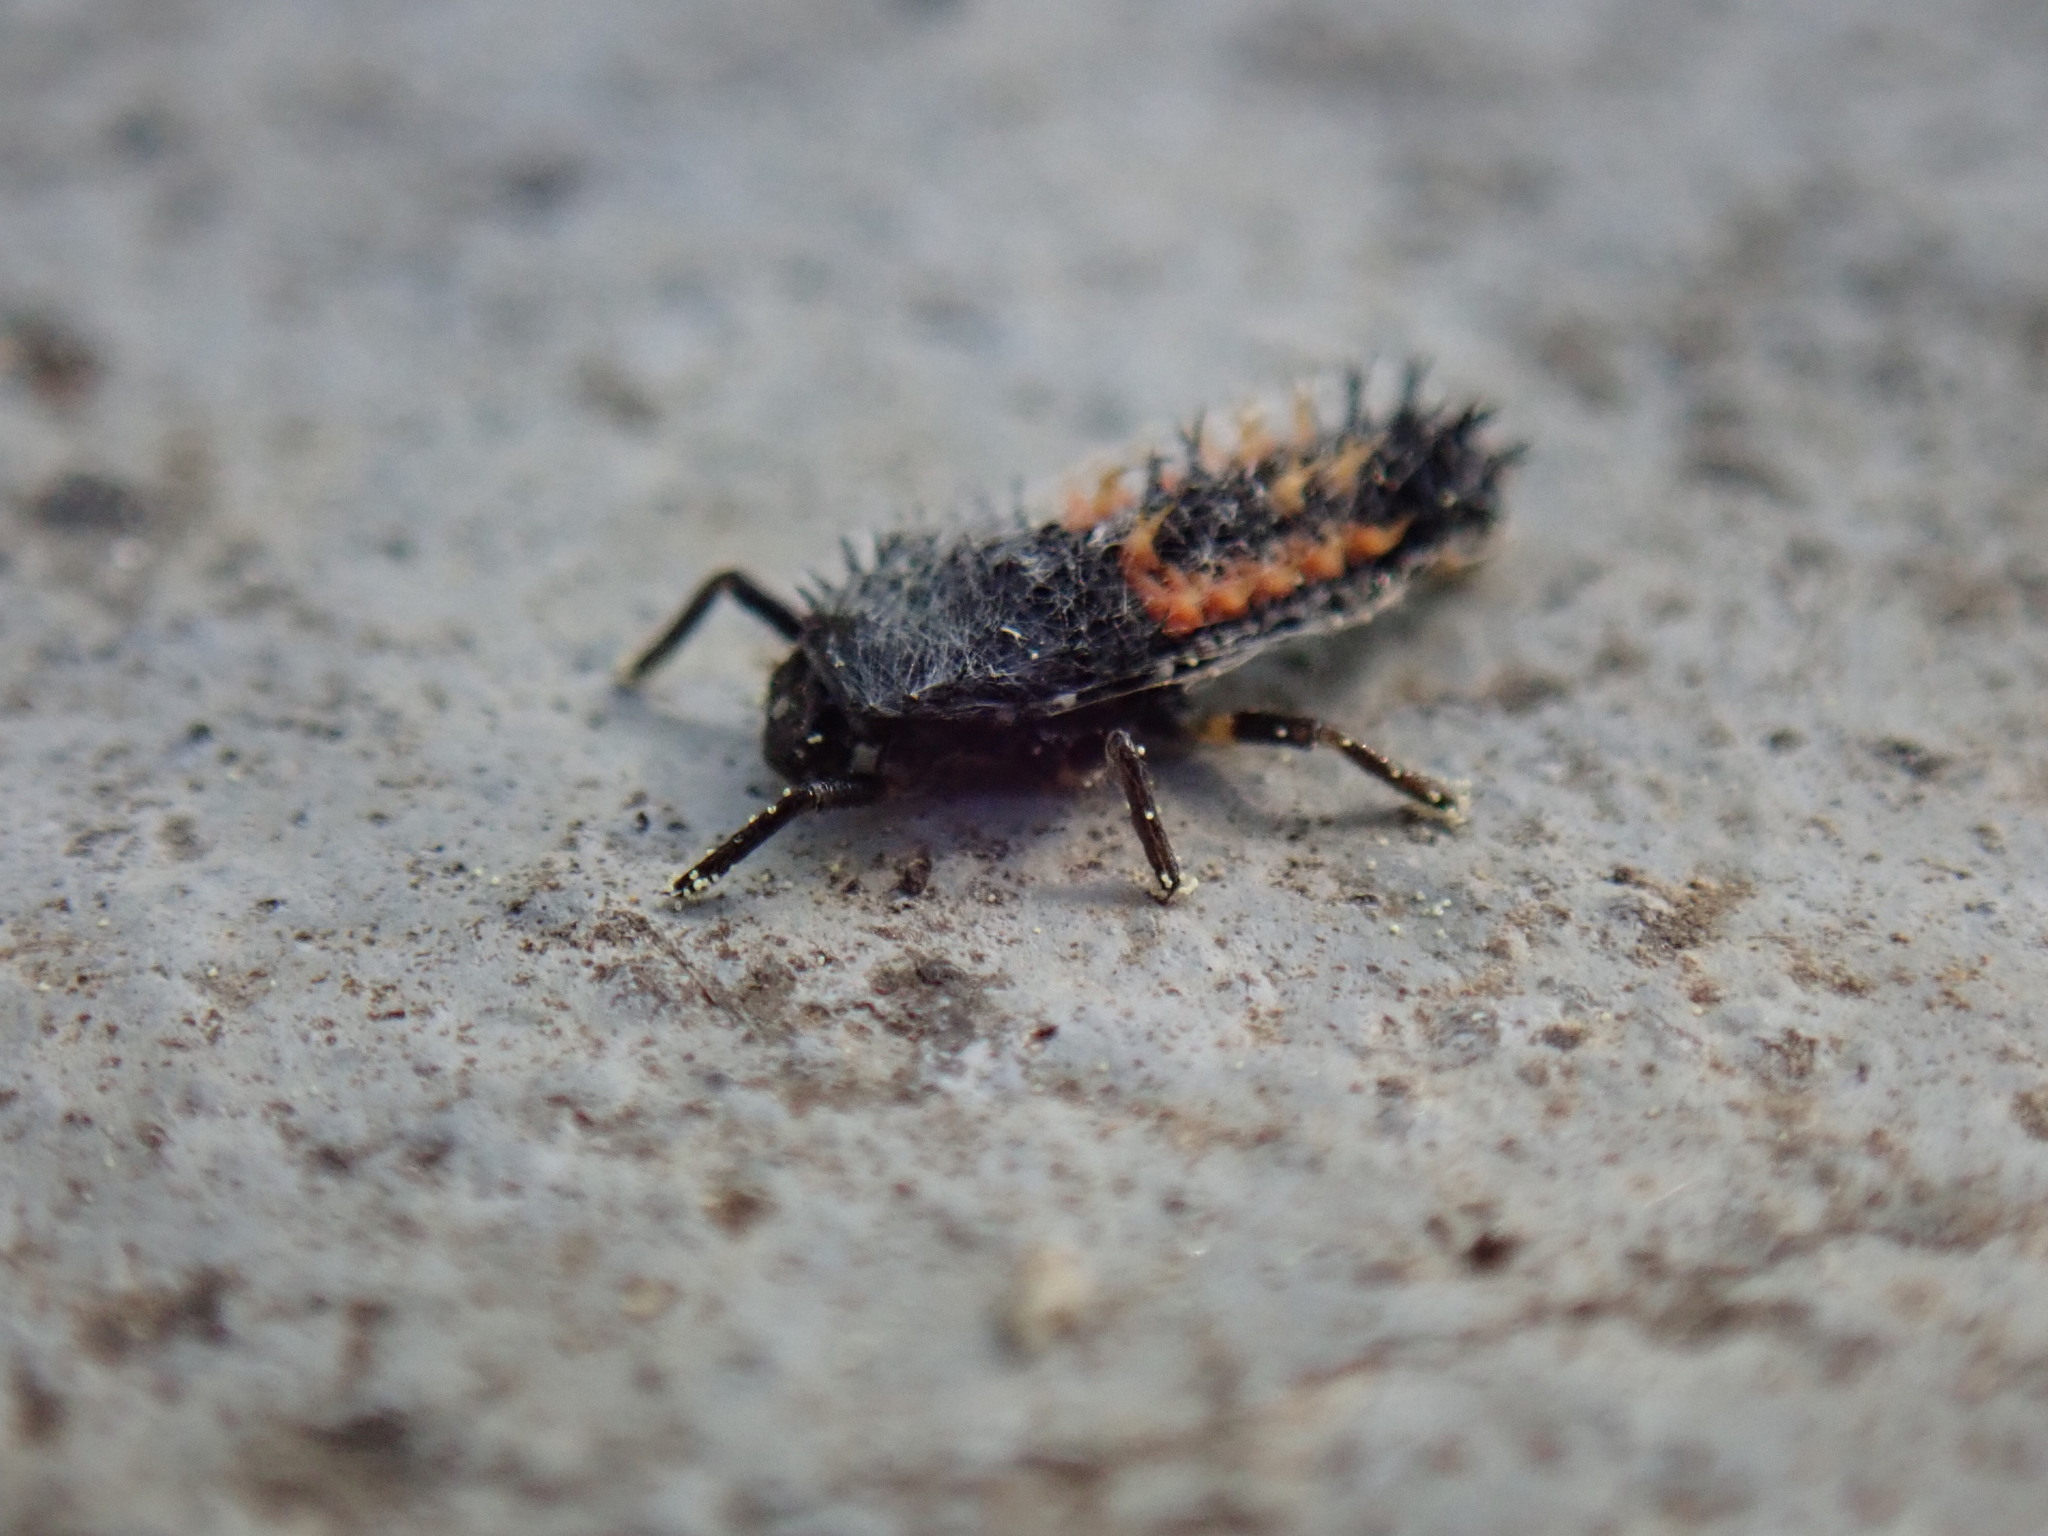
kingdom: Animalia
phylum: Arthropoda
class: Insecta
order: Coleoptera
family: Coccinellidae
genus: Harmonia
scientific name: Harmonia axyridis
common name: Harlequin ladybird
